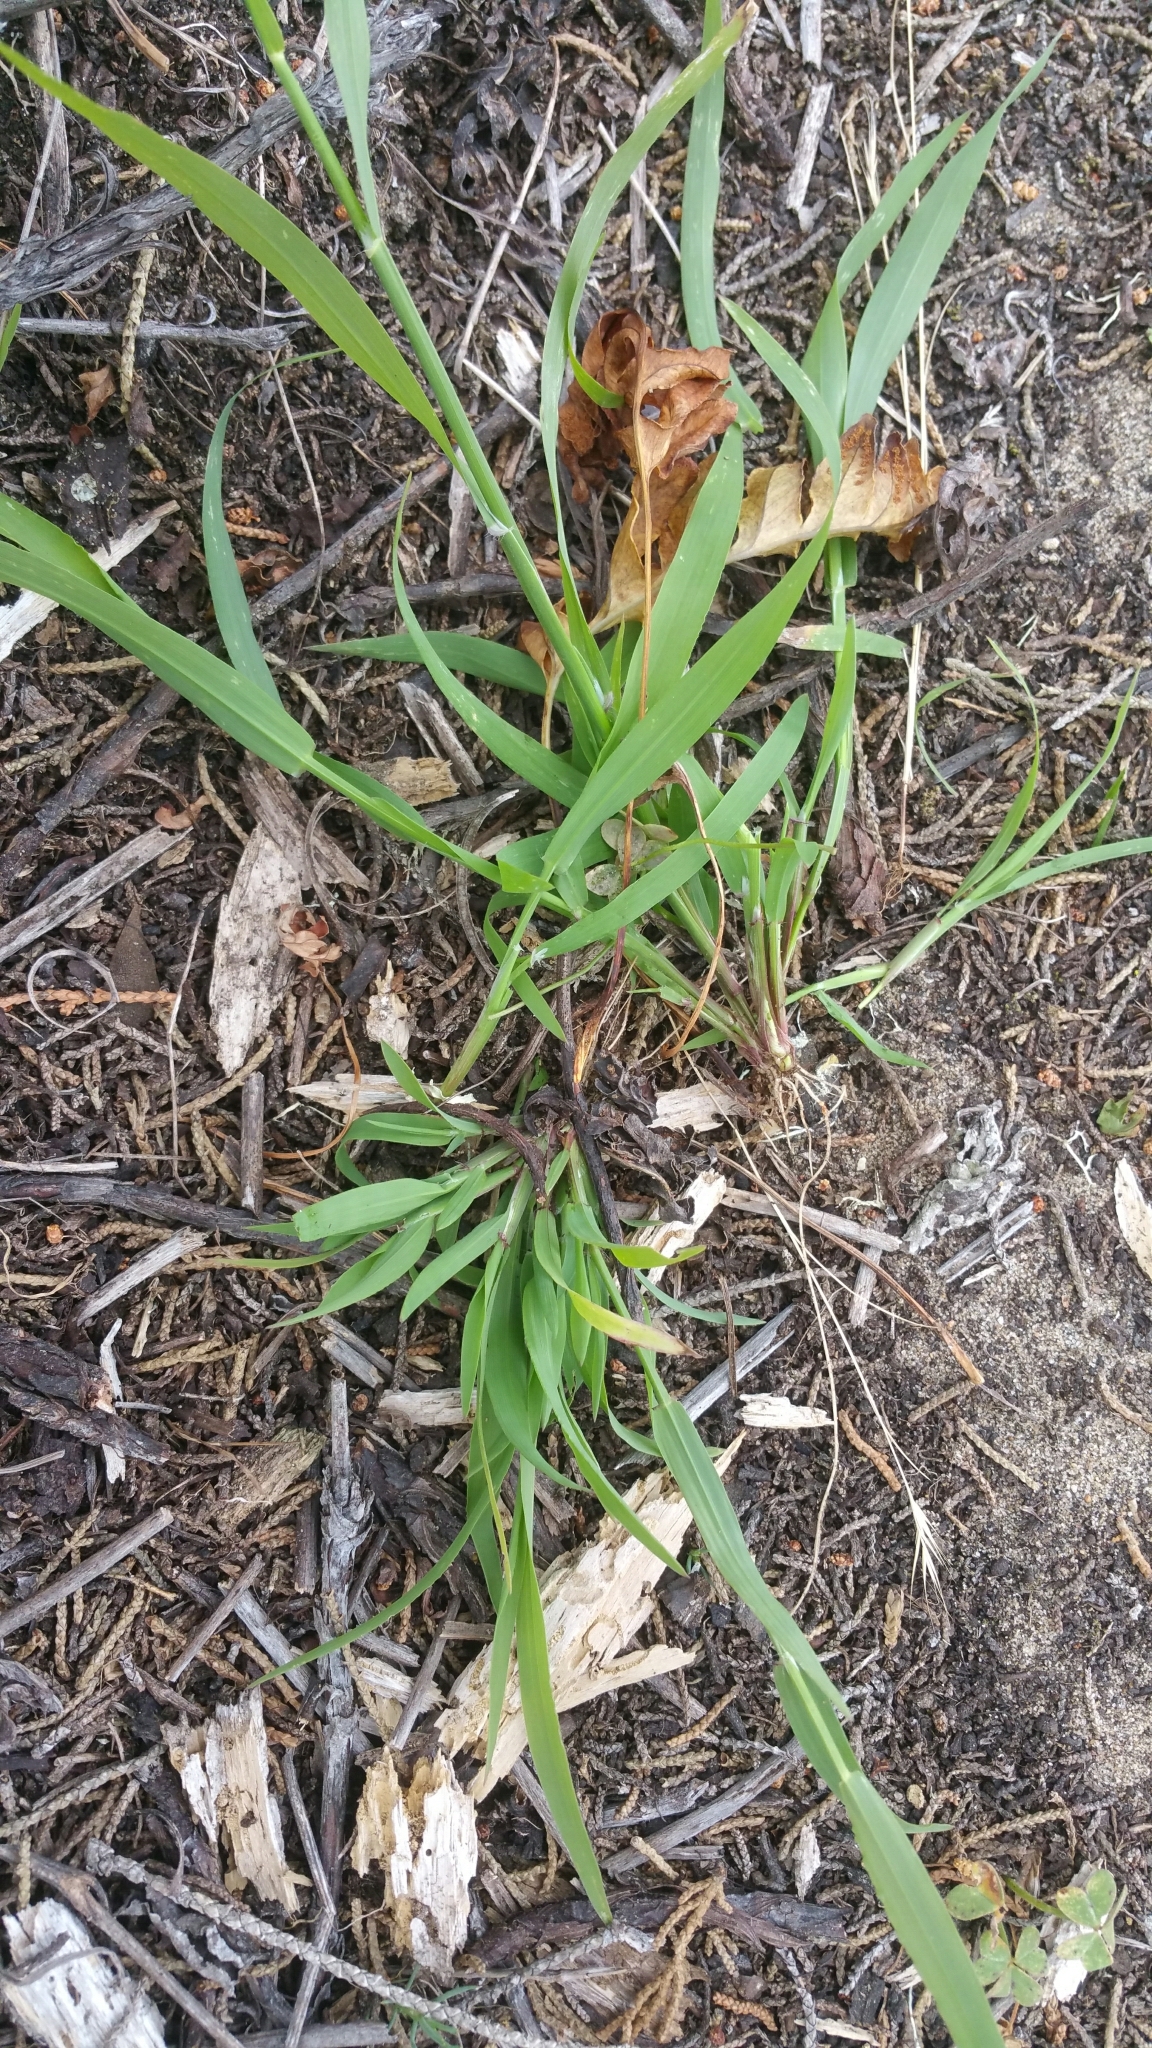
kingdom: Plantae
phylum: Tracheophyta
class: Liliopsida
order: Poales
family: Poaceae
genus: Ehrharta
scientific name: Ehrharta erecta
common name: Panic veldtgrass
